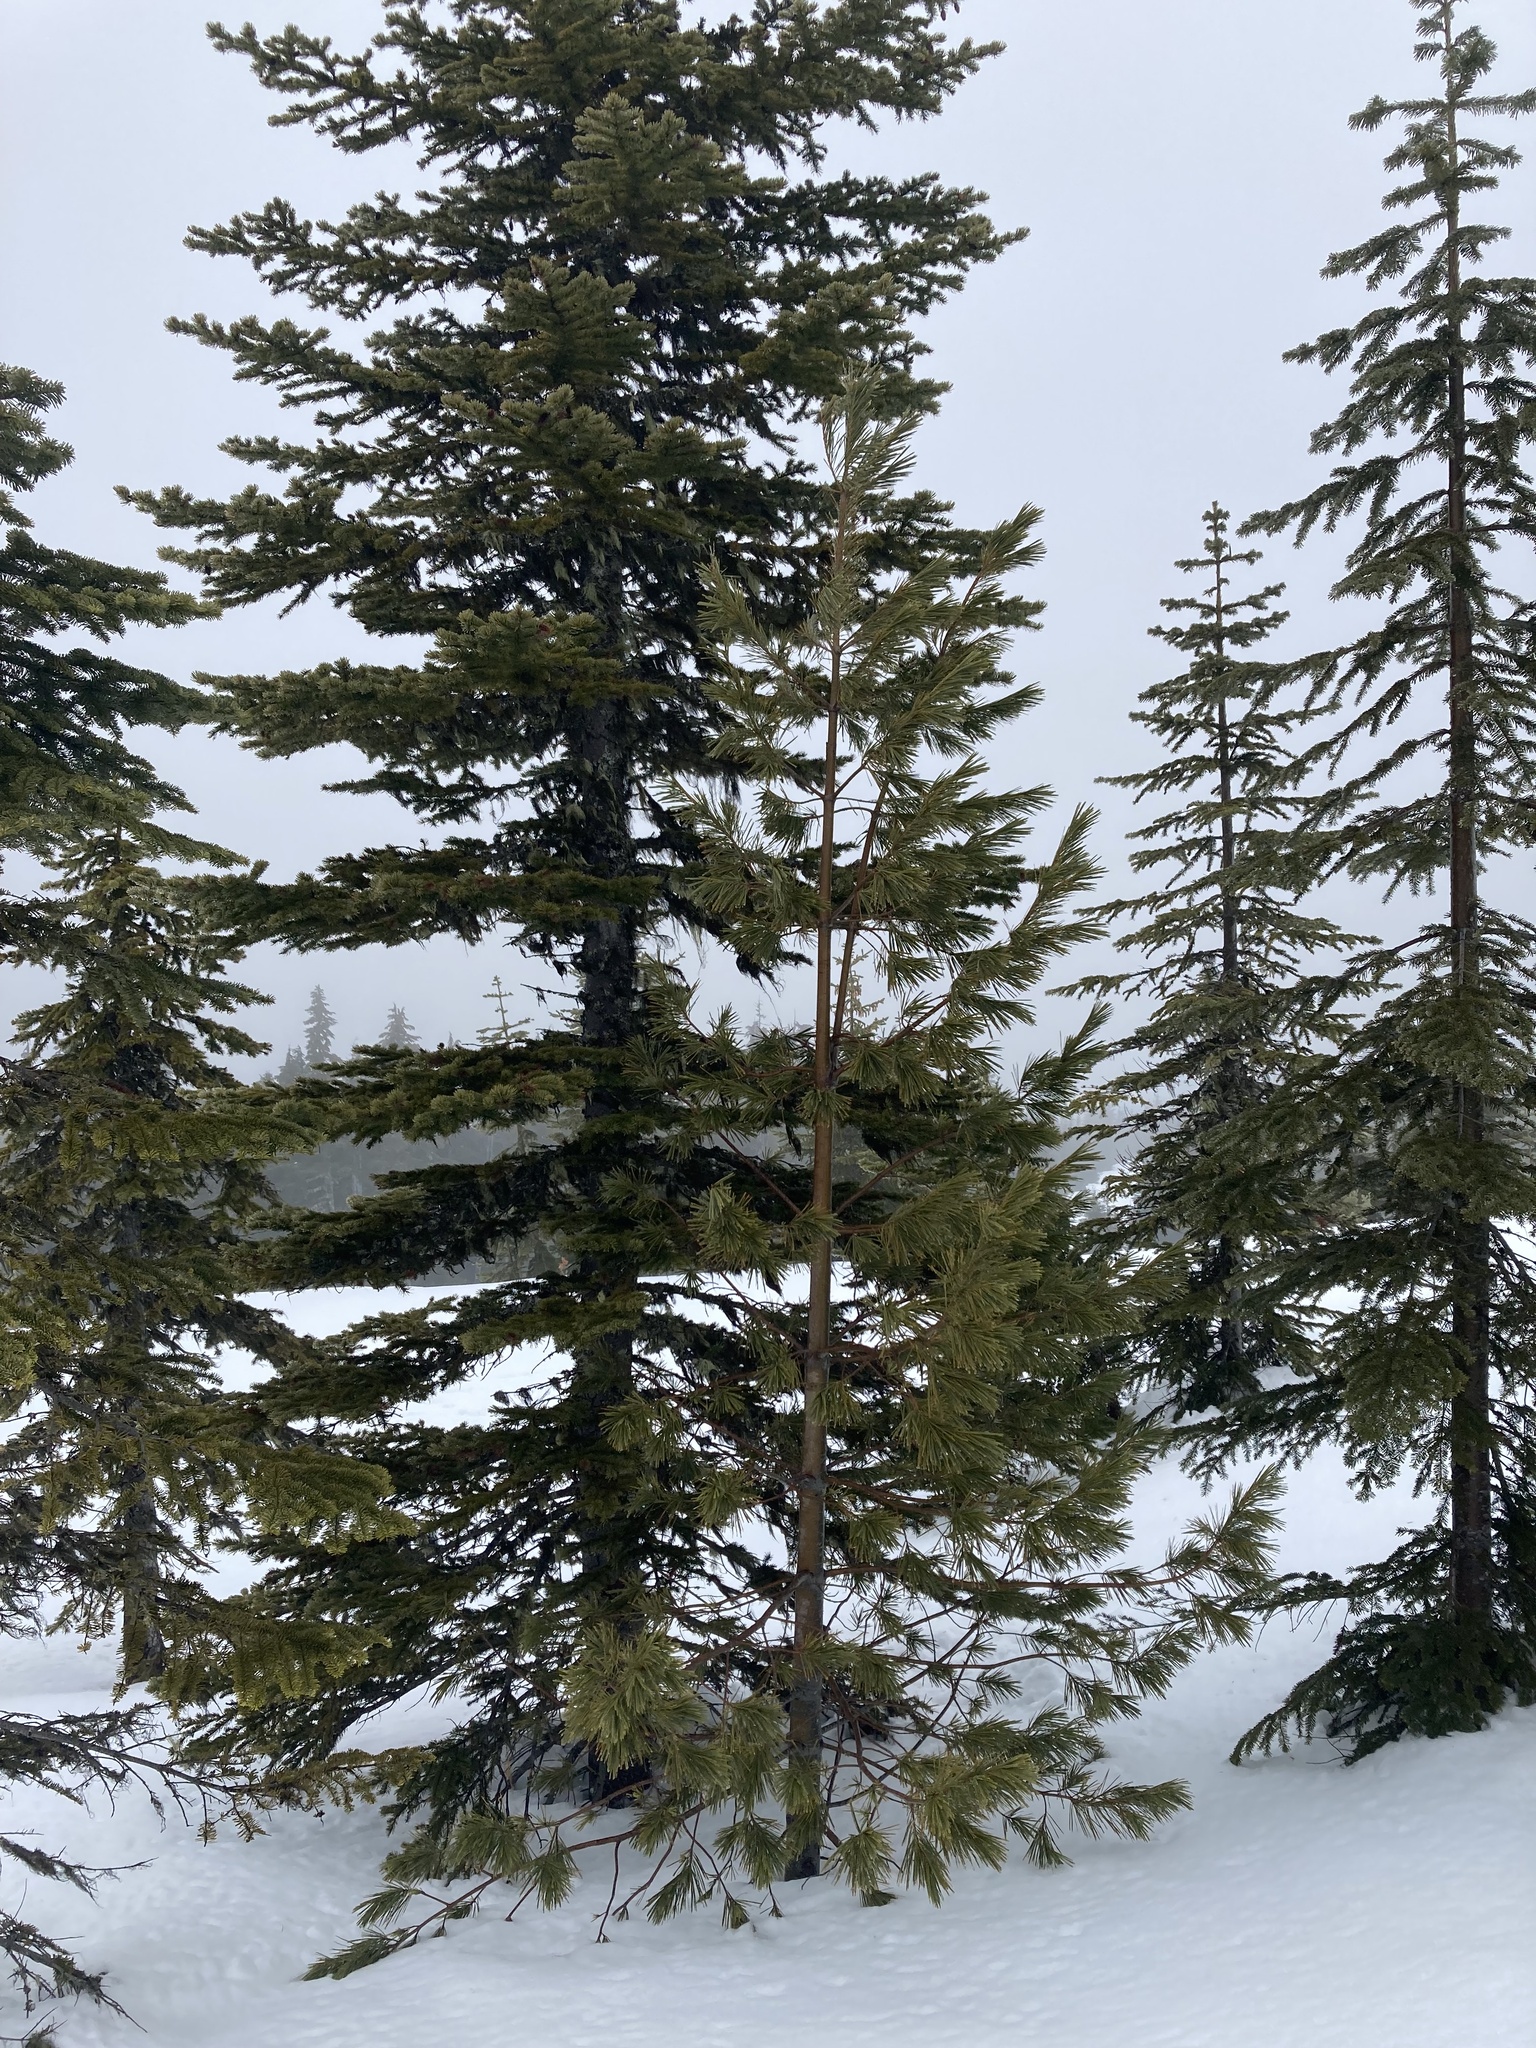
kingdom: Plantae
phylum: Tracheophyta
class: Pinopsida
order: Pinales
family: Pinaceae
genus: Pinus
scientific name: Pinus monticola
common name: Western white pine
